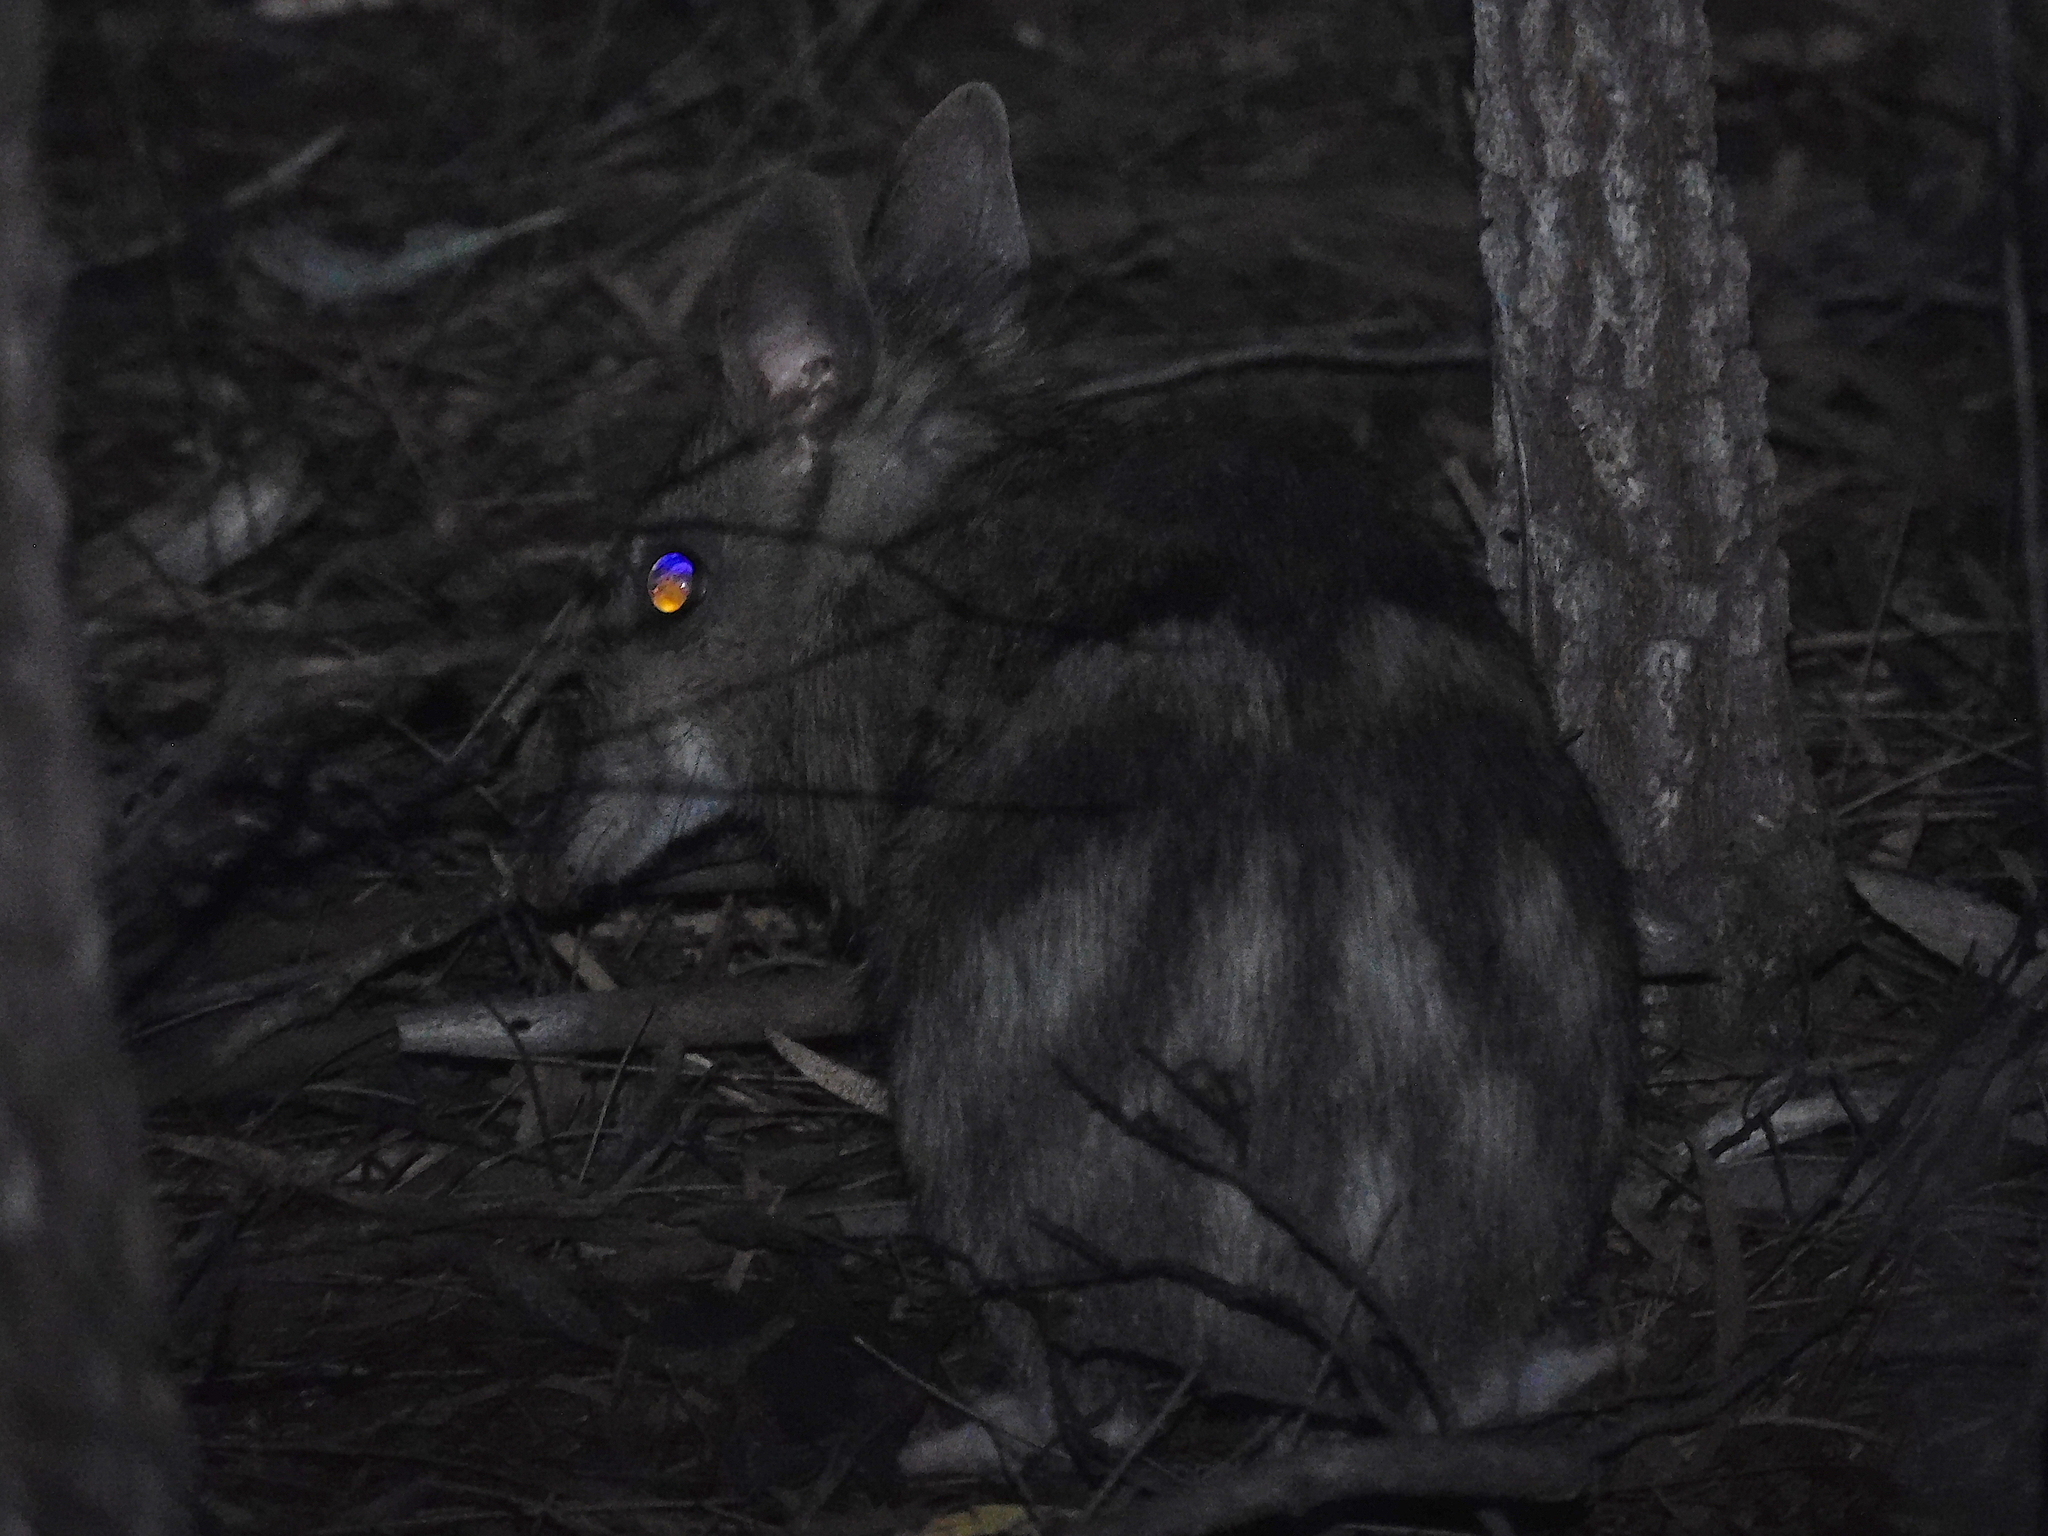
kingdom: Animalia
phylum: Chordata
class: Mammalia
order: Peramelemorphia
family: Peramelidae
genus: Perameles
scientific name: Perameles gunnii
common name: Eastern barred bandicoot
